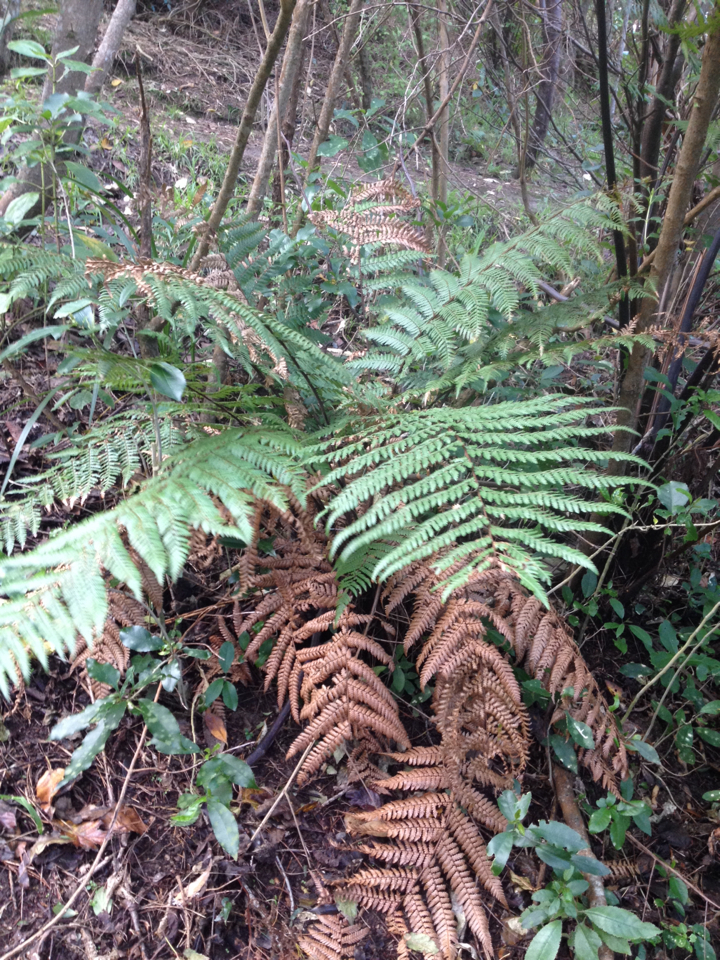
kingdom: Plantae
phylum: Tracheophyta
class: Polypodiopsida
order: Cyatheales
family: Dicksoniaceae
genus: Dicksonia
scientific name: Dicksonia squarrosa
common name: Hard treefern
